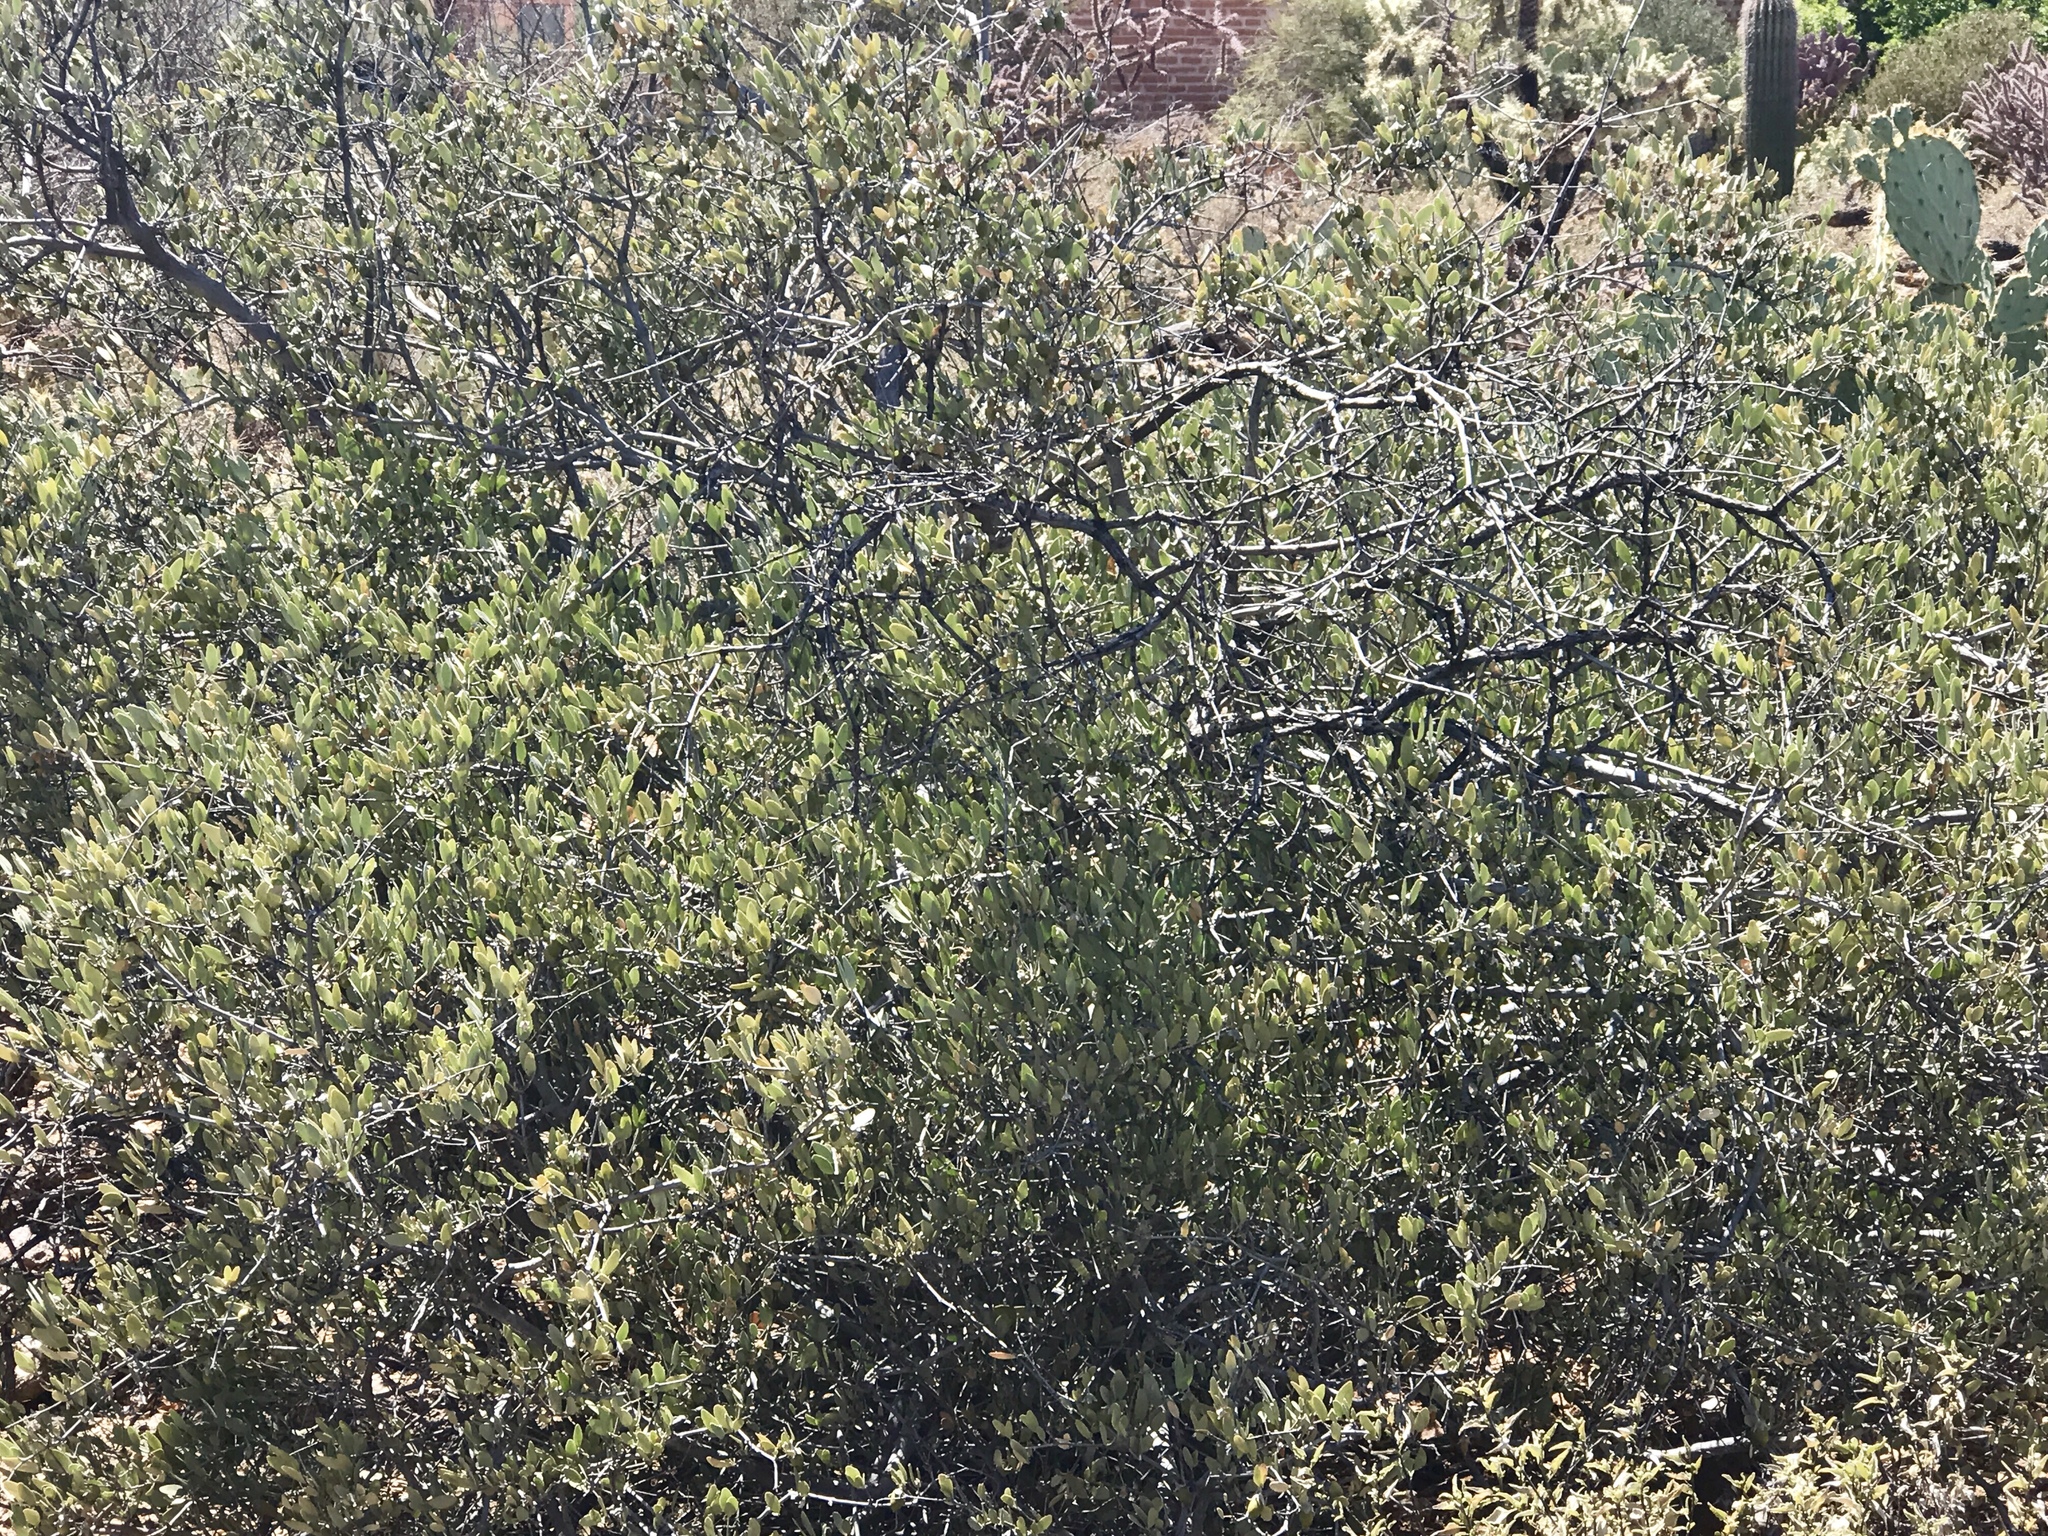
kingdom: Plantae
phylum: Tracheophyta
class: Magnoliopsida
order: Caryophyllales
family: Simmondsiaceae
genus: Simmondsia
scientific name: Simmondsia chinensis
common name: Jojoba
